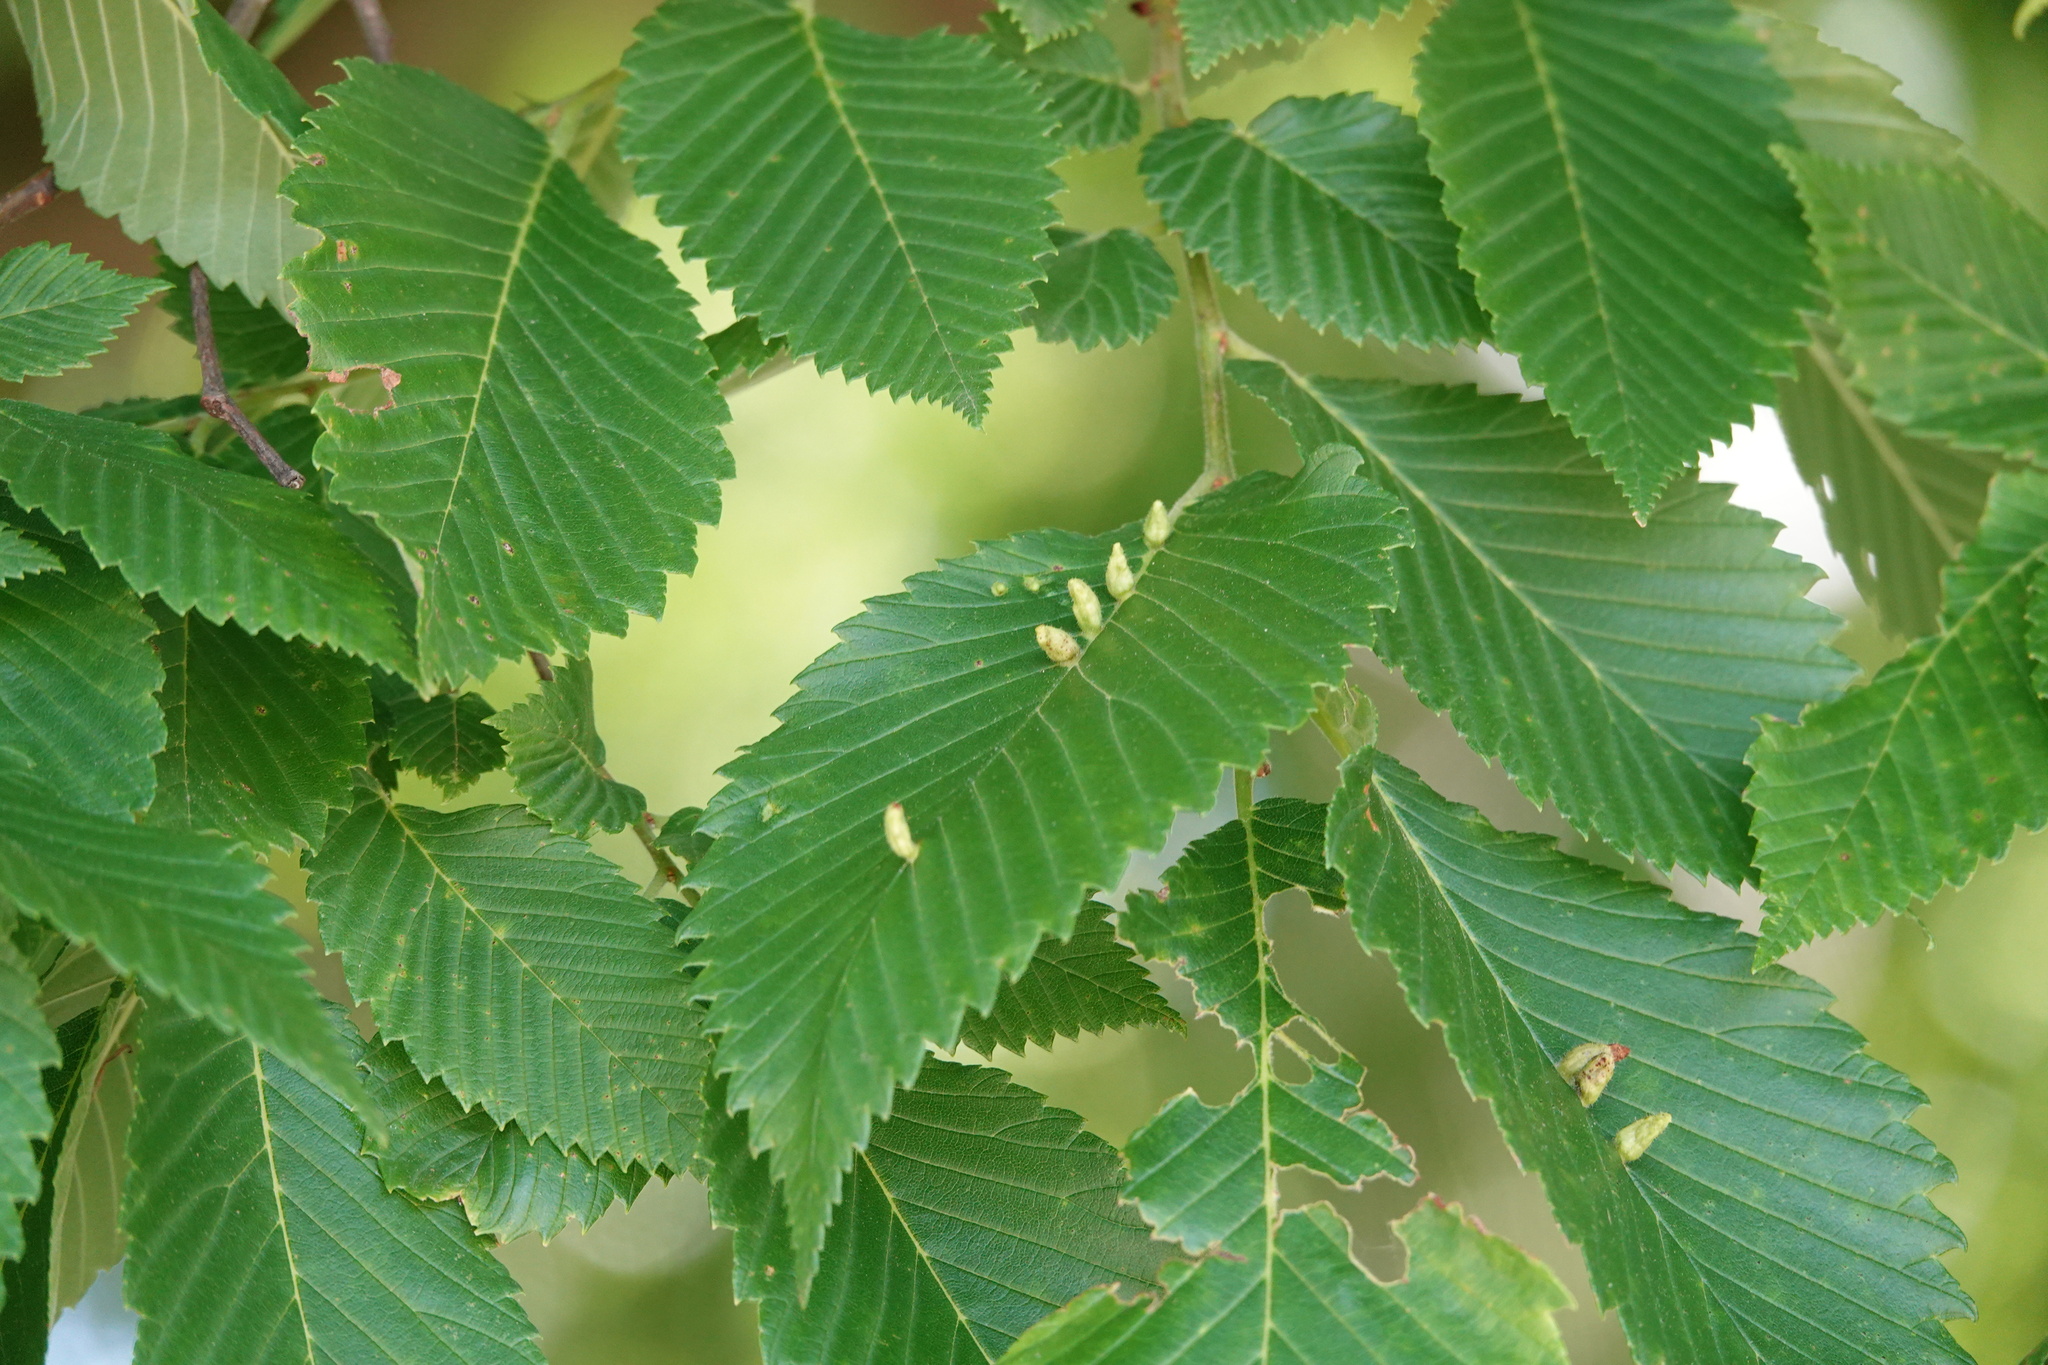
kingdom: Animalia
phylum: Arthropoda
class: Arachnida
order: Trombidiformes
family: Eriophyidae
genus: Aceria
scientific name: Aceria
